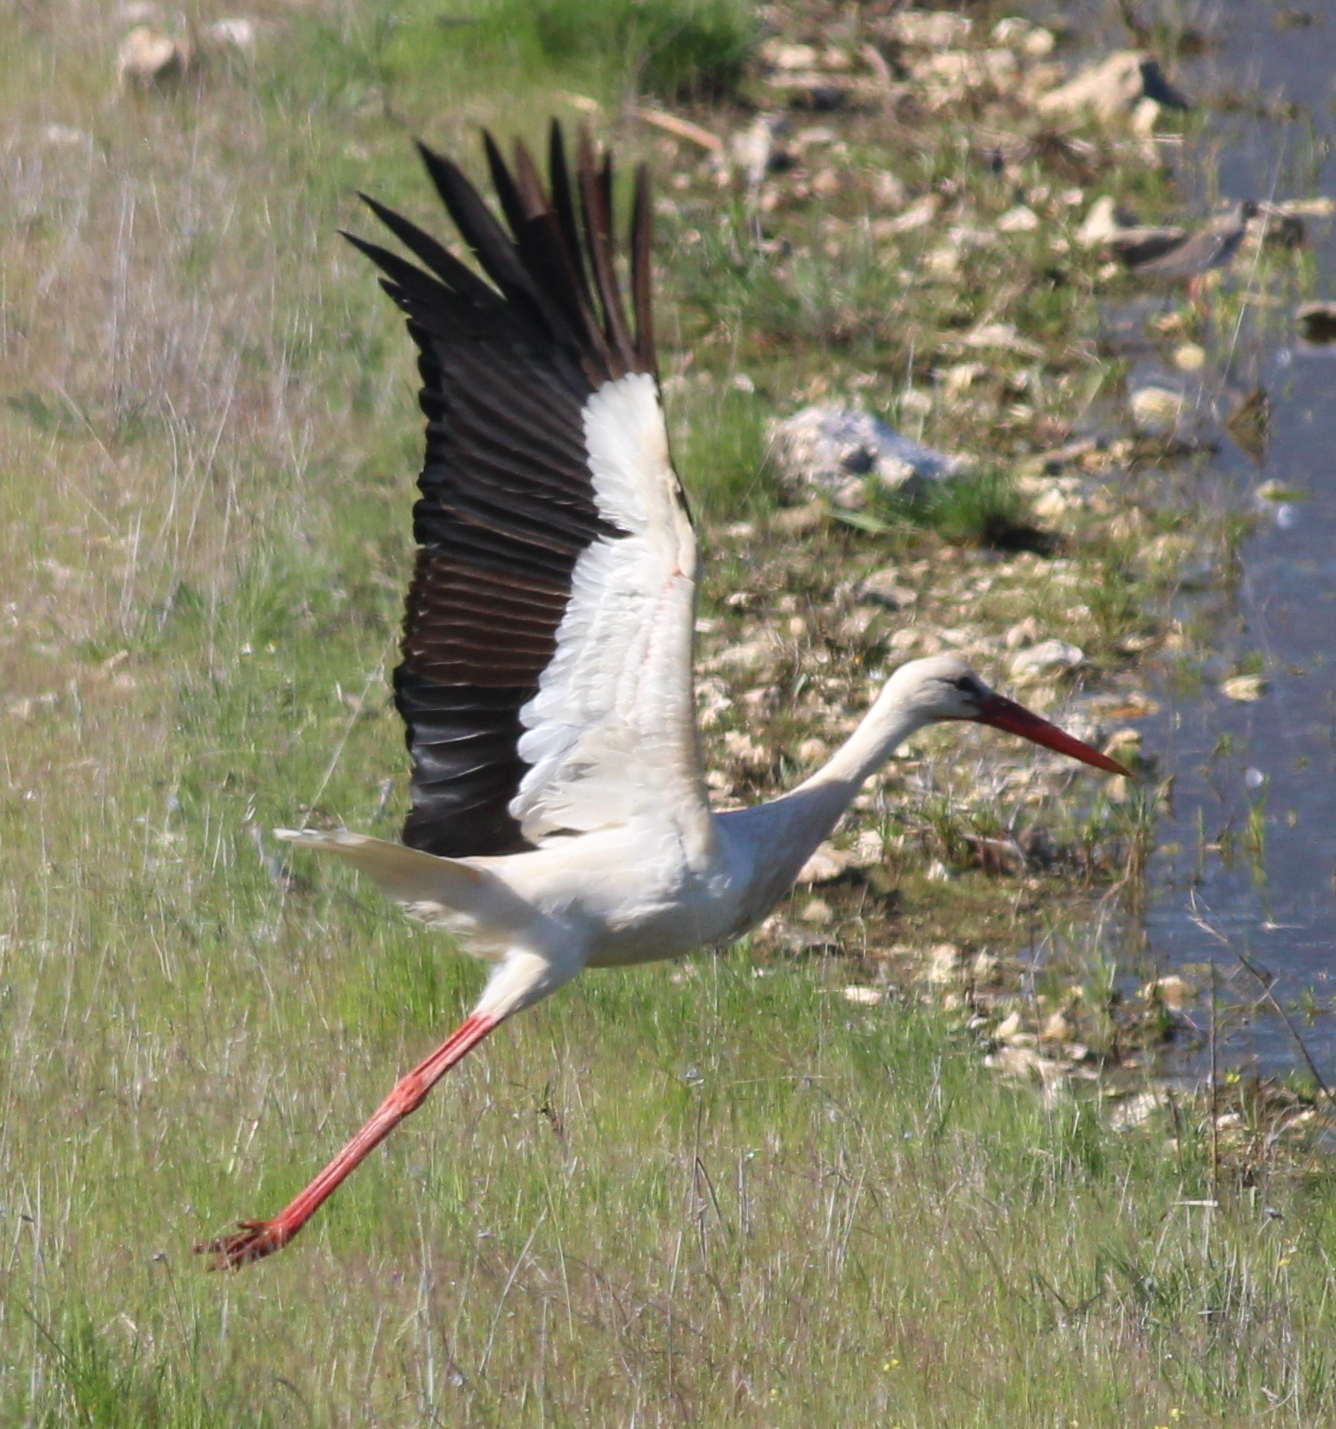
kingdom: Animalia
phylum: Chordata
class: Aves
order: Ciconiiformes
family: Ciconiidae
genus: Ciconia
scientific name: Ciconia ciconia
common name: White stork
